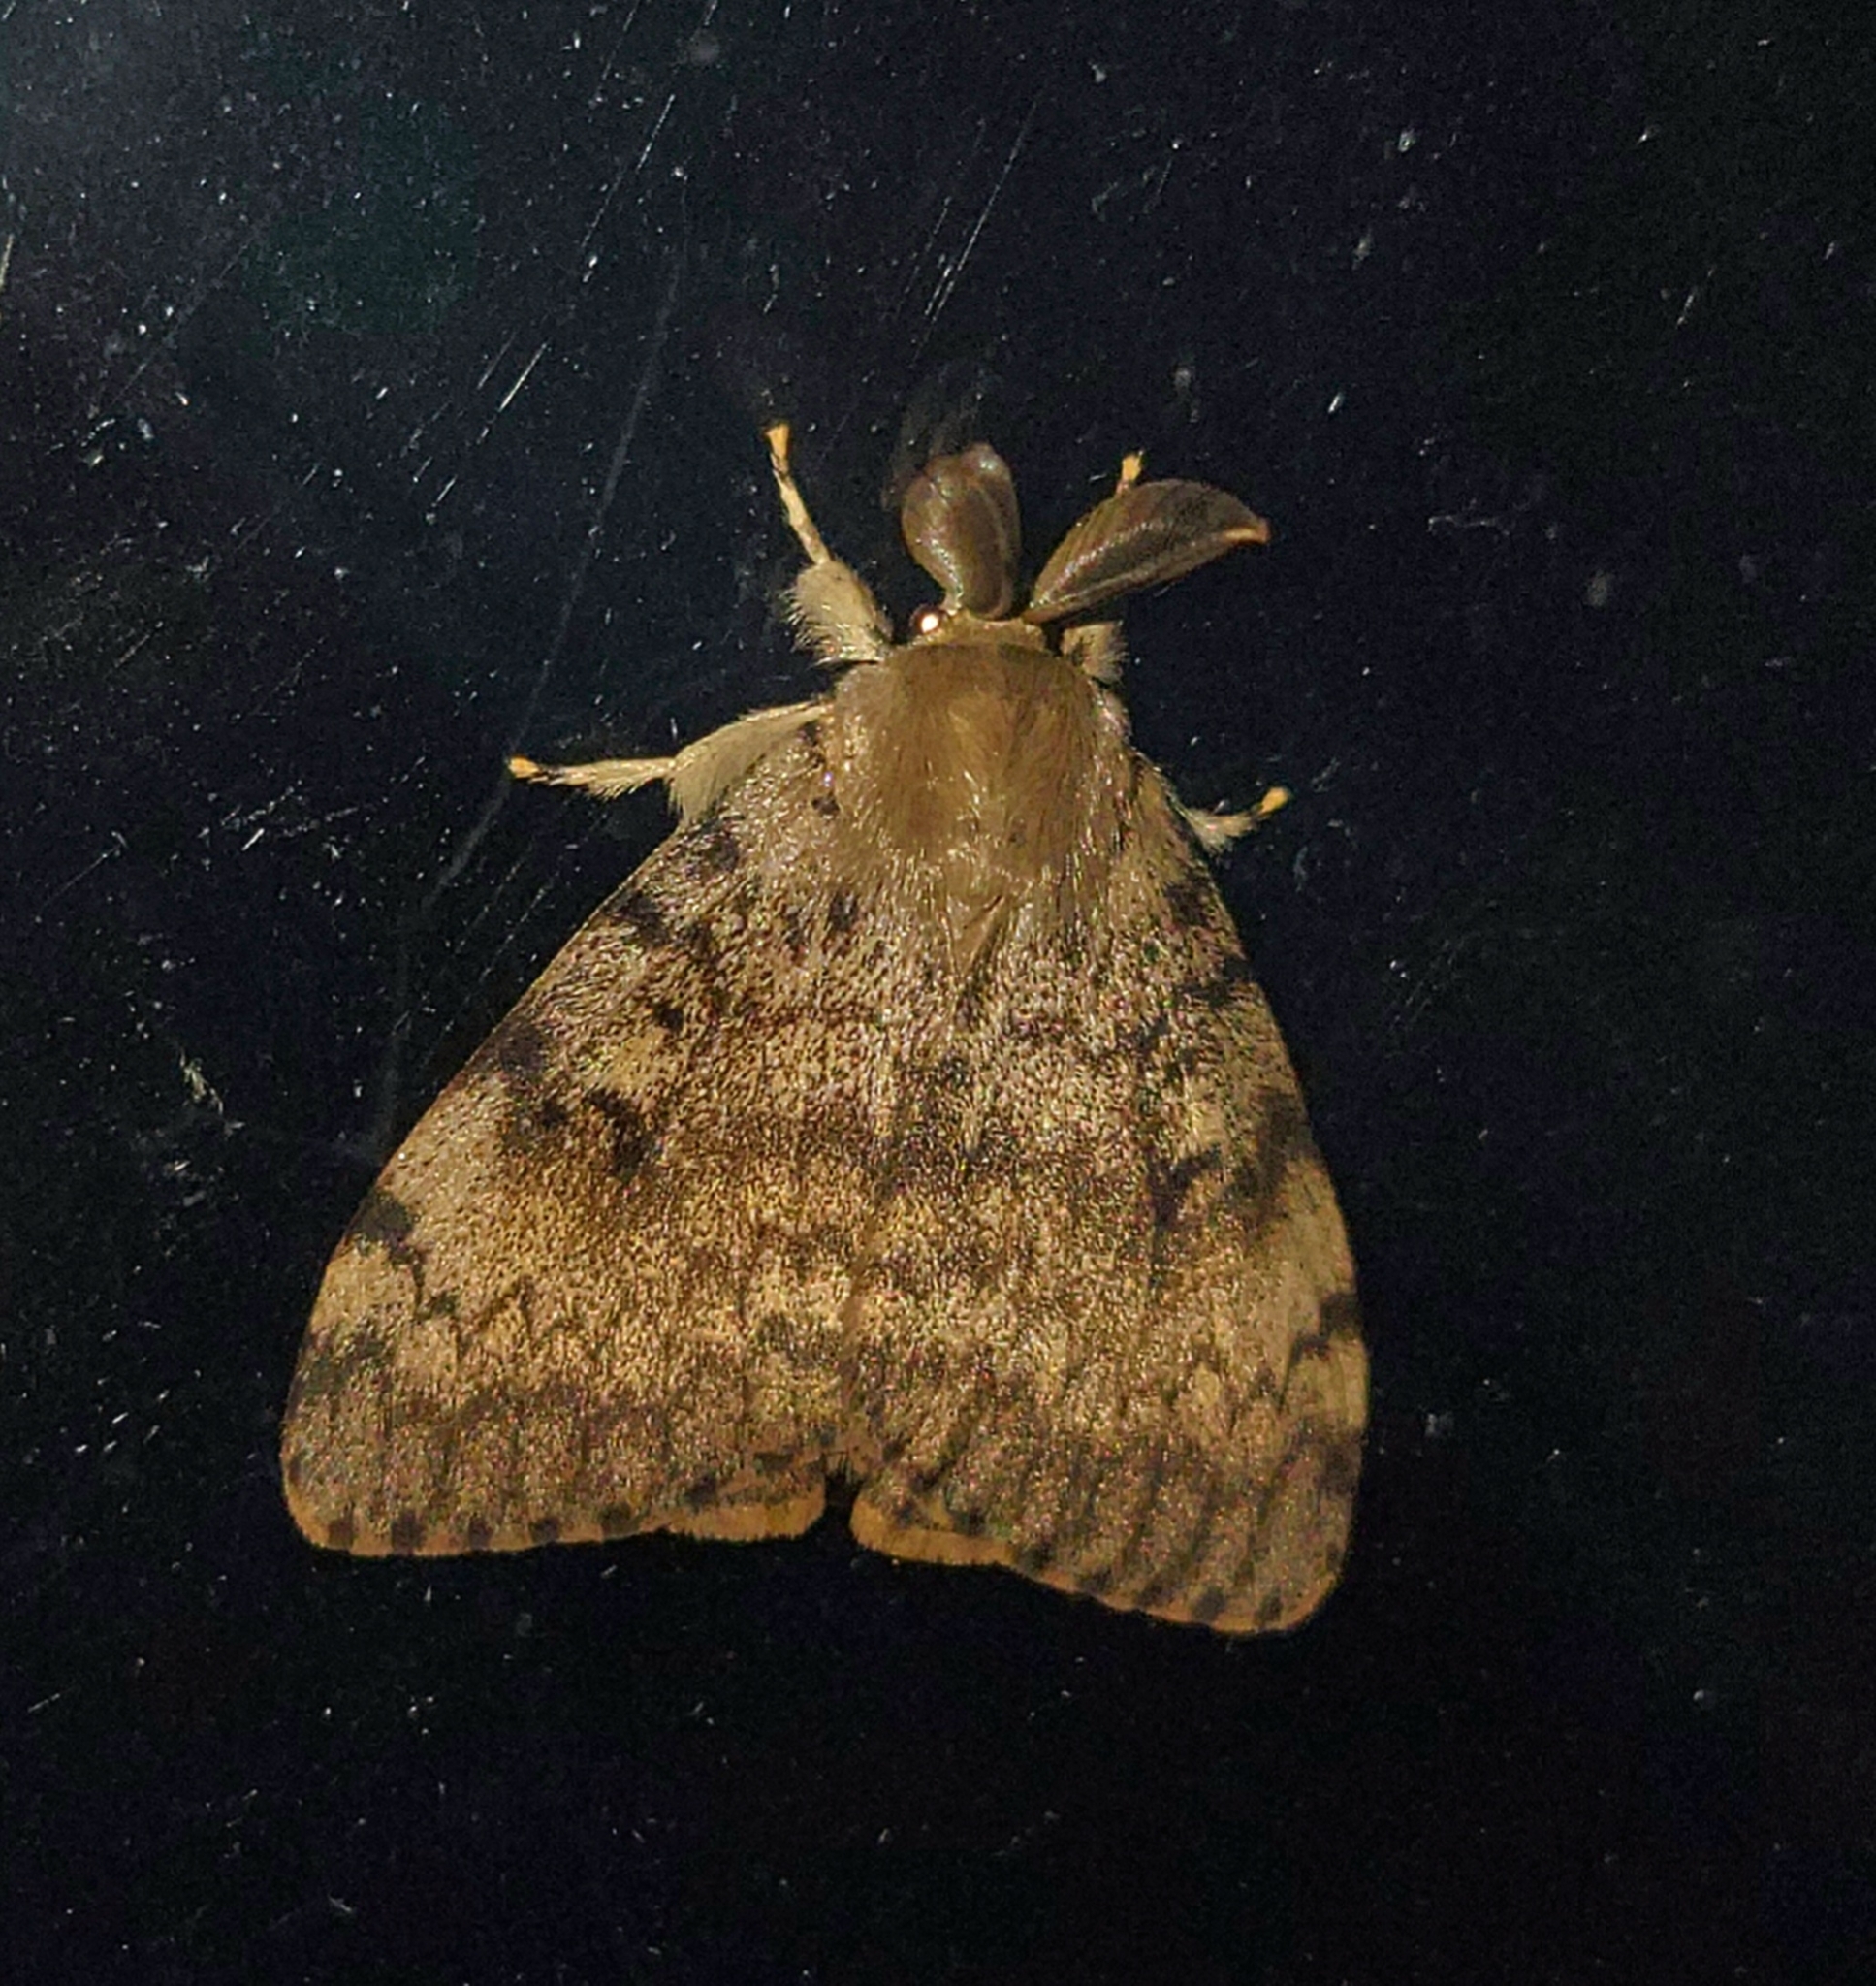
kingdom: Animalia
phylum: Arthropoda
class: Insecta
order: Lepidoptera
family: Erebidae
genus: Lymantria
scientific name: Lymantria dispar
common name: Gypsy moth
